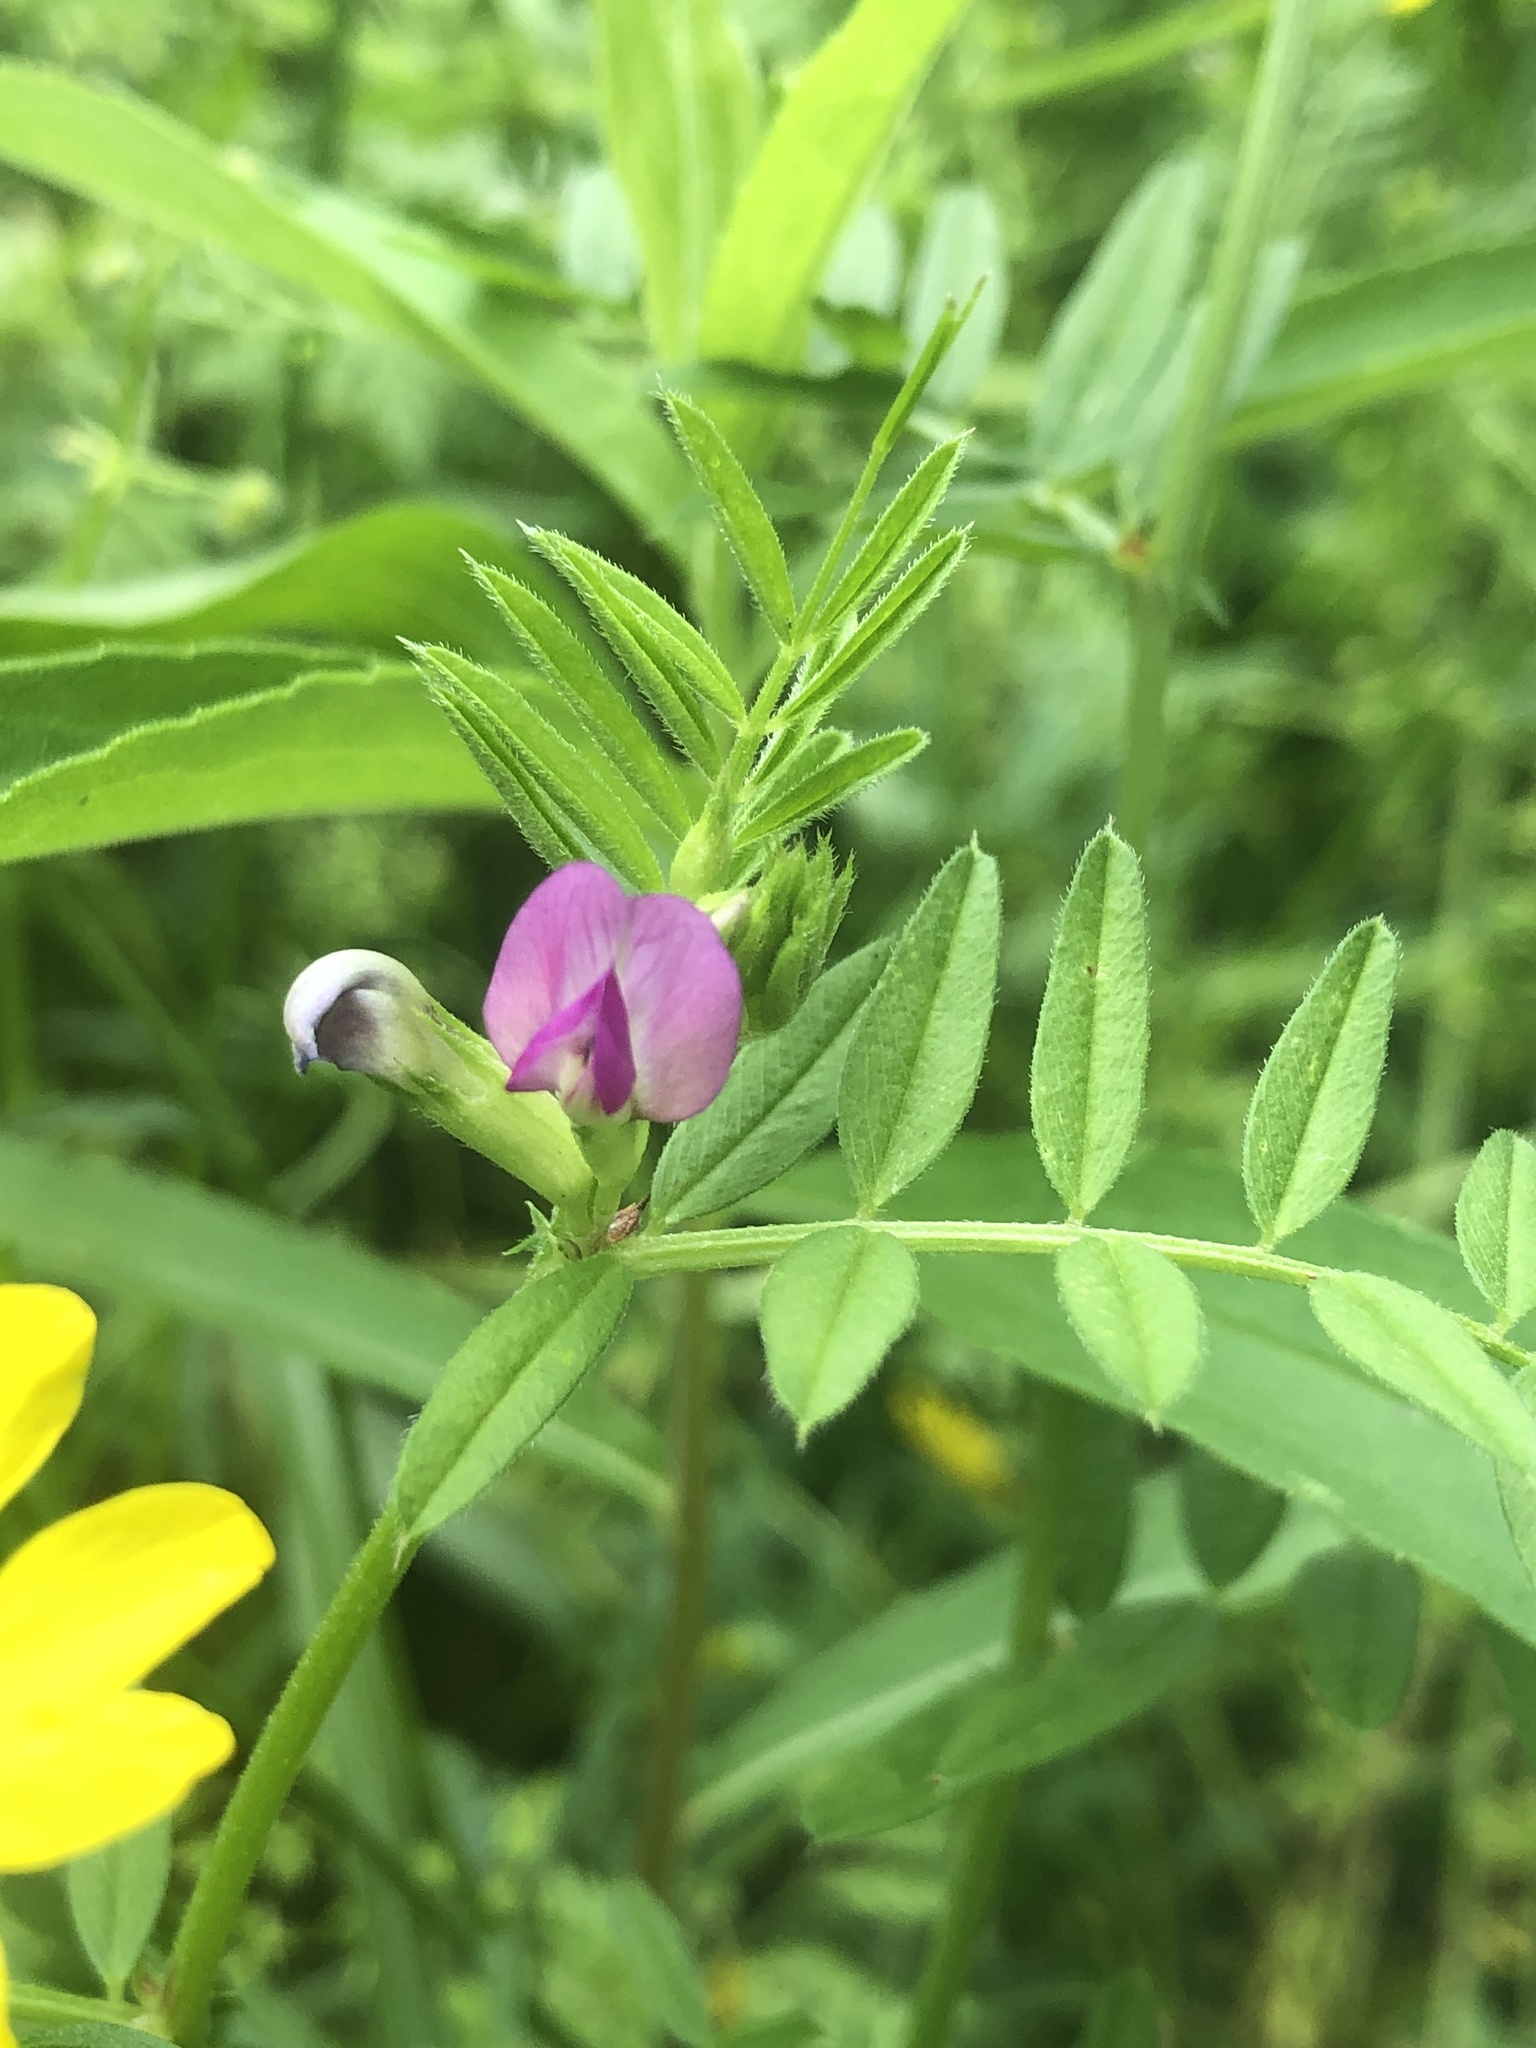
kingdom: Plantae
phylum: Tracheophyta
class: Magnoliopsida
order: Fabales
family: Fabaceae
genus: Vicia
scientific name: Vicia sativa
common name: Garden vetch
